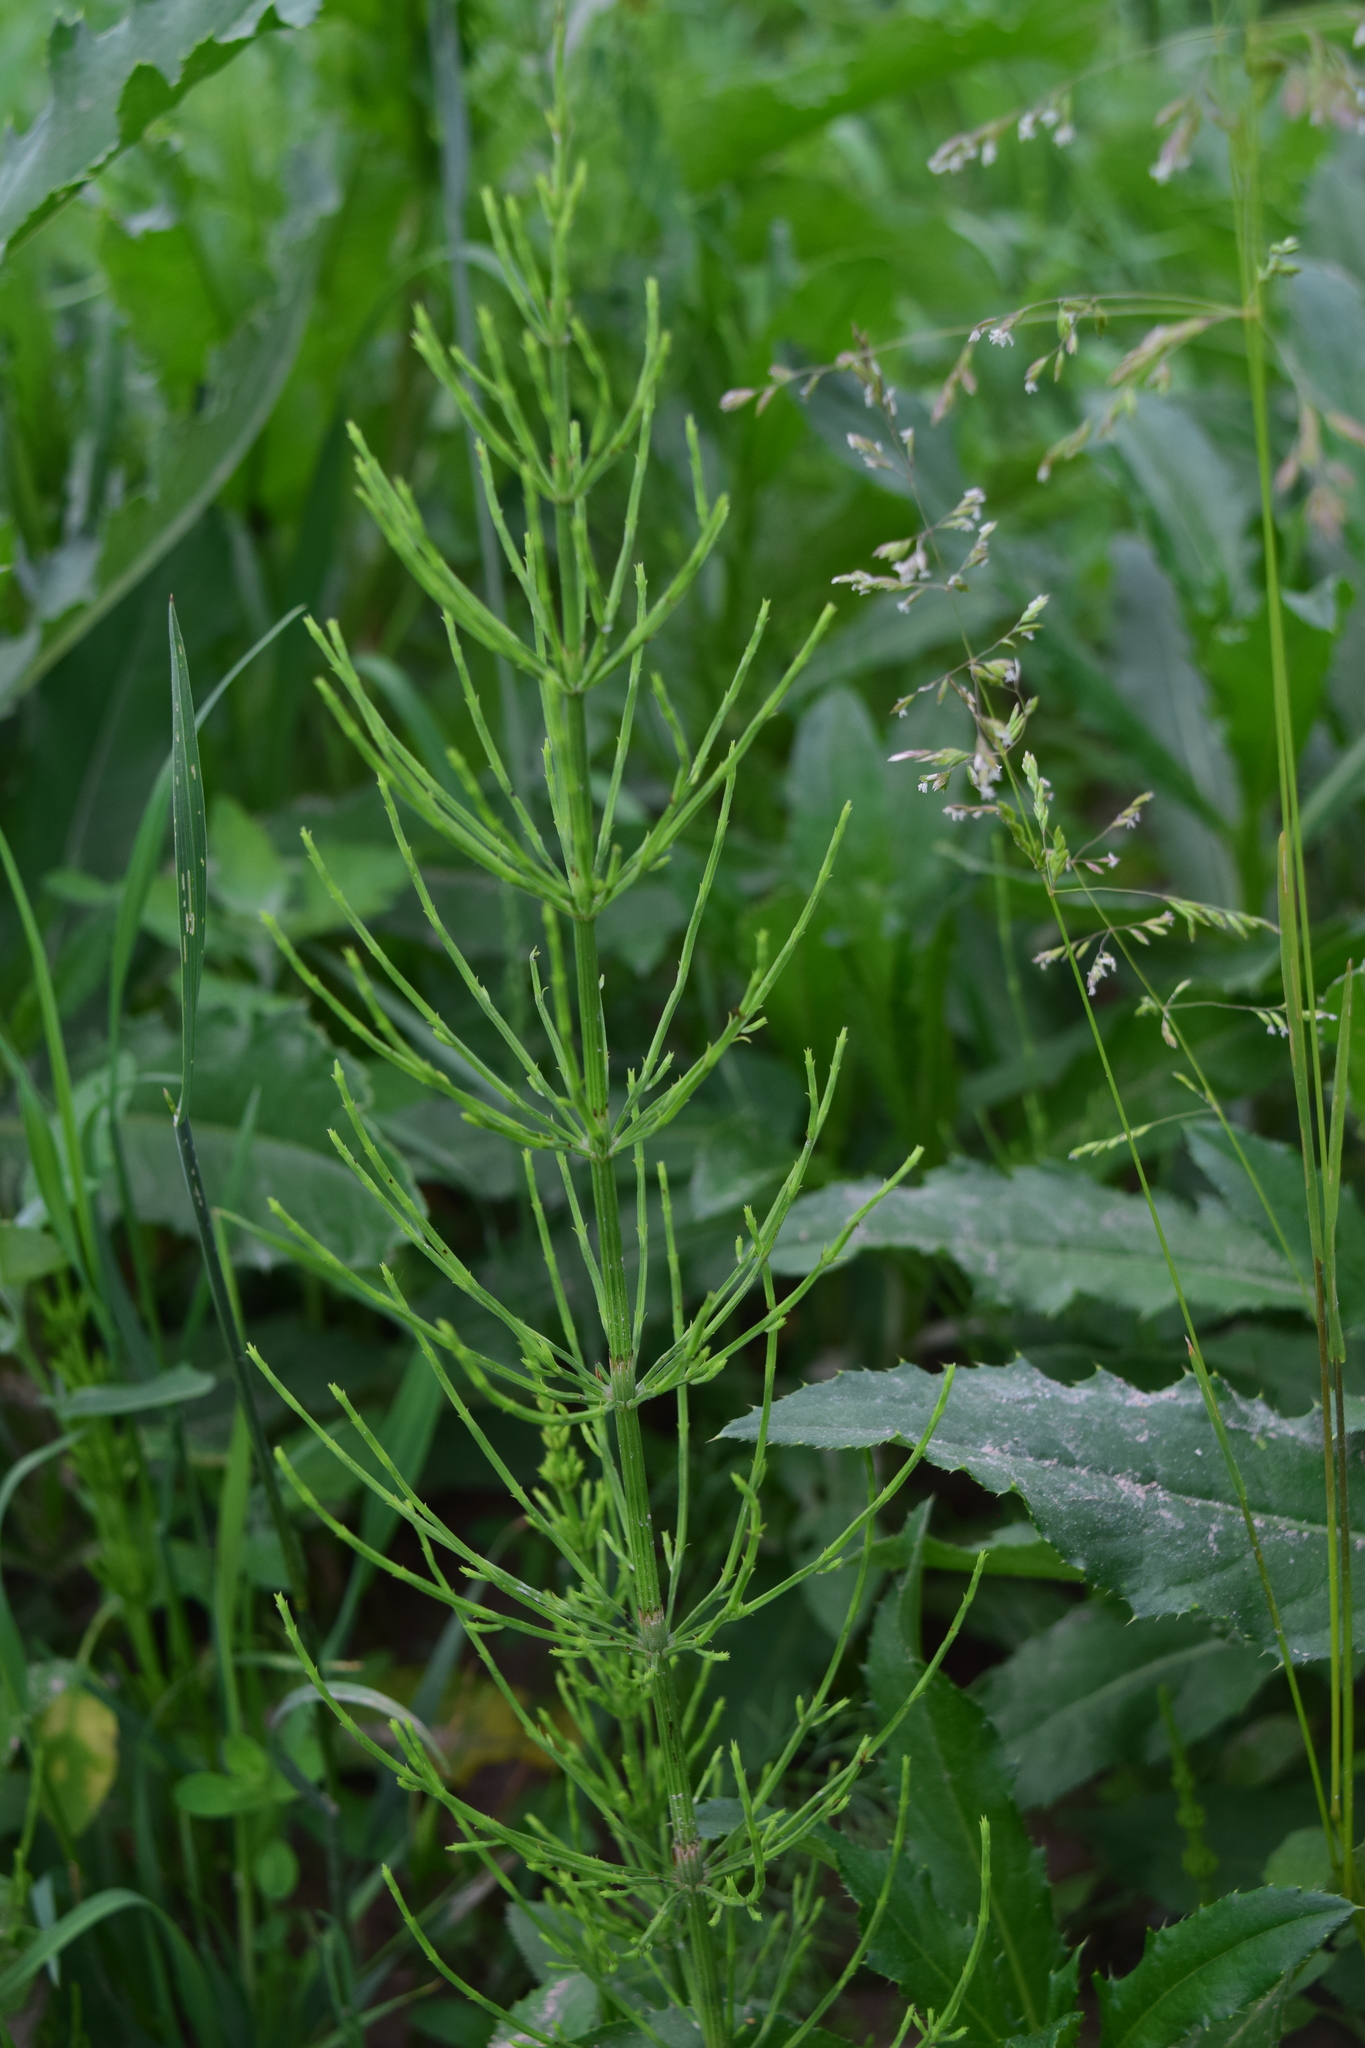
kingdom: Plantae
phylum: Tracheophyta
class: Polypodiopsida
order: Equisetales
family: Equisetaceae
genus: Equisetum
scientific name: Equisetum arvense
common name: Field horsetail
